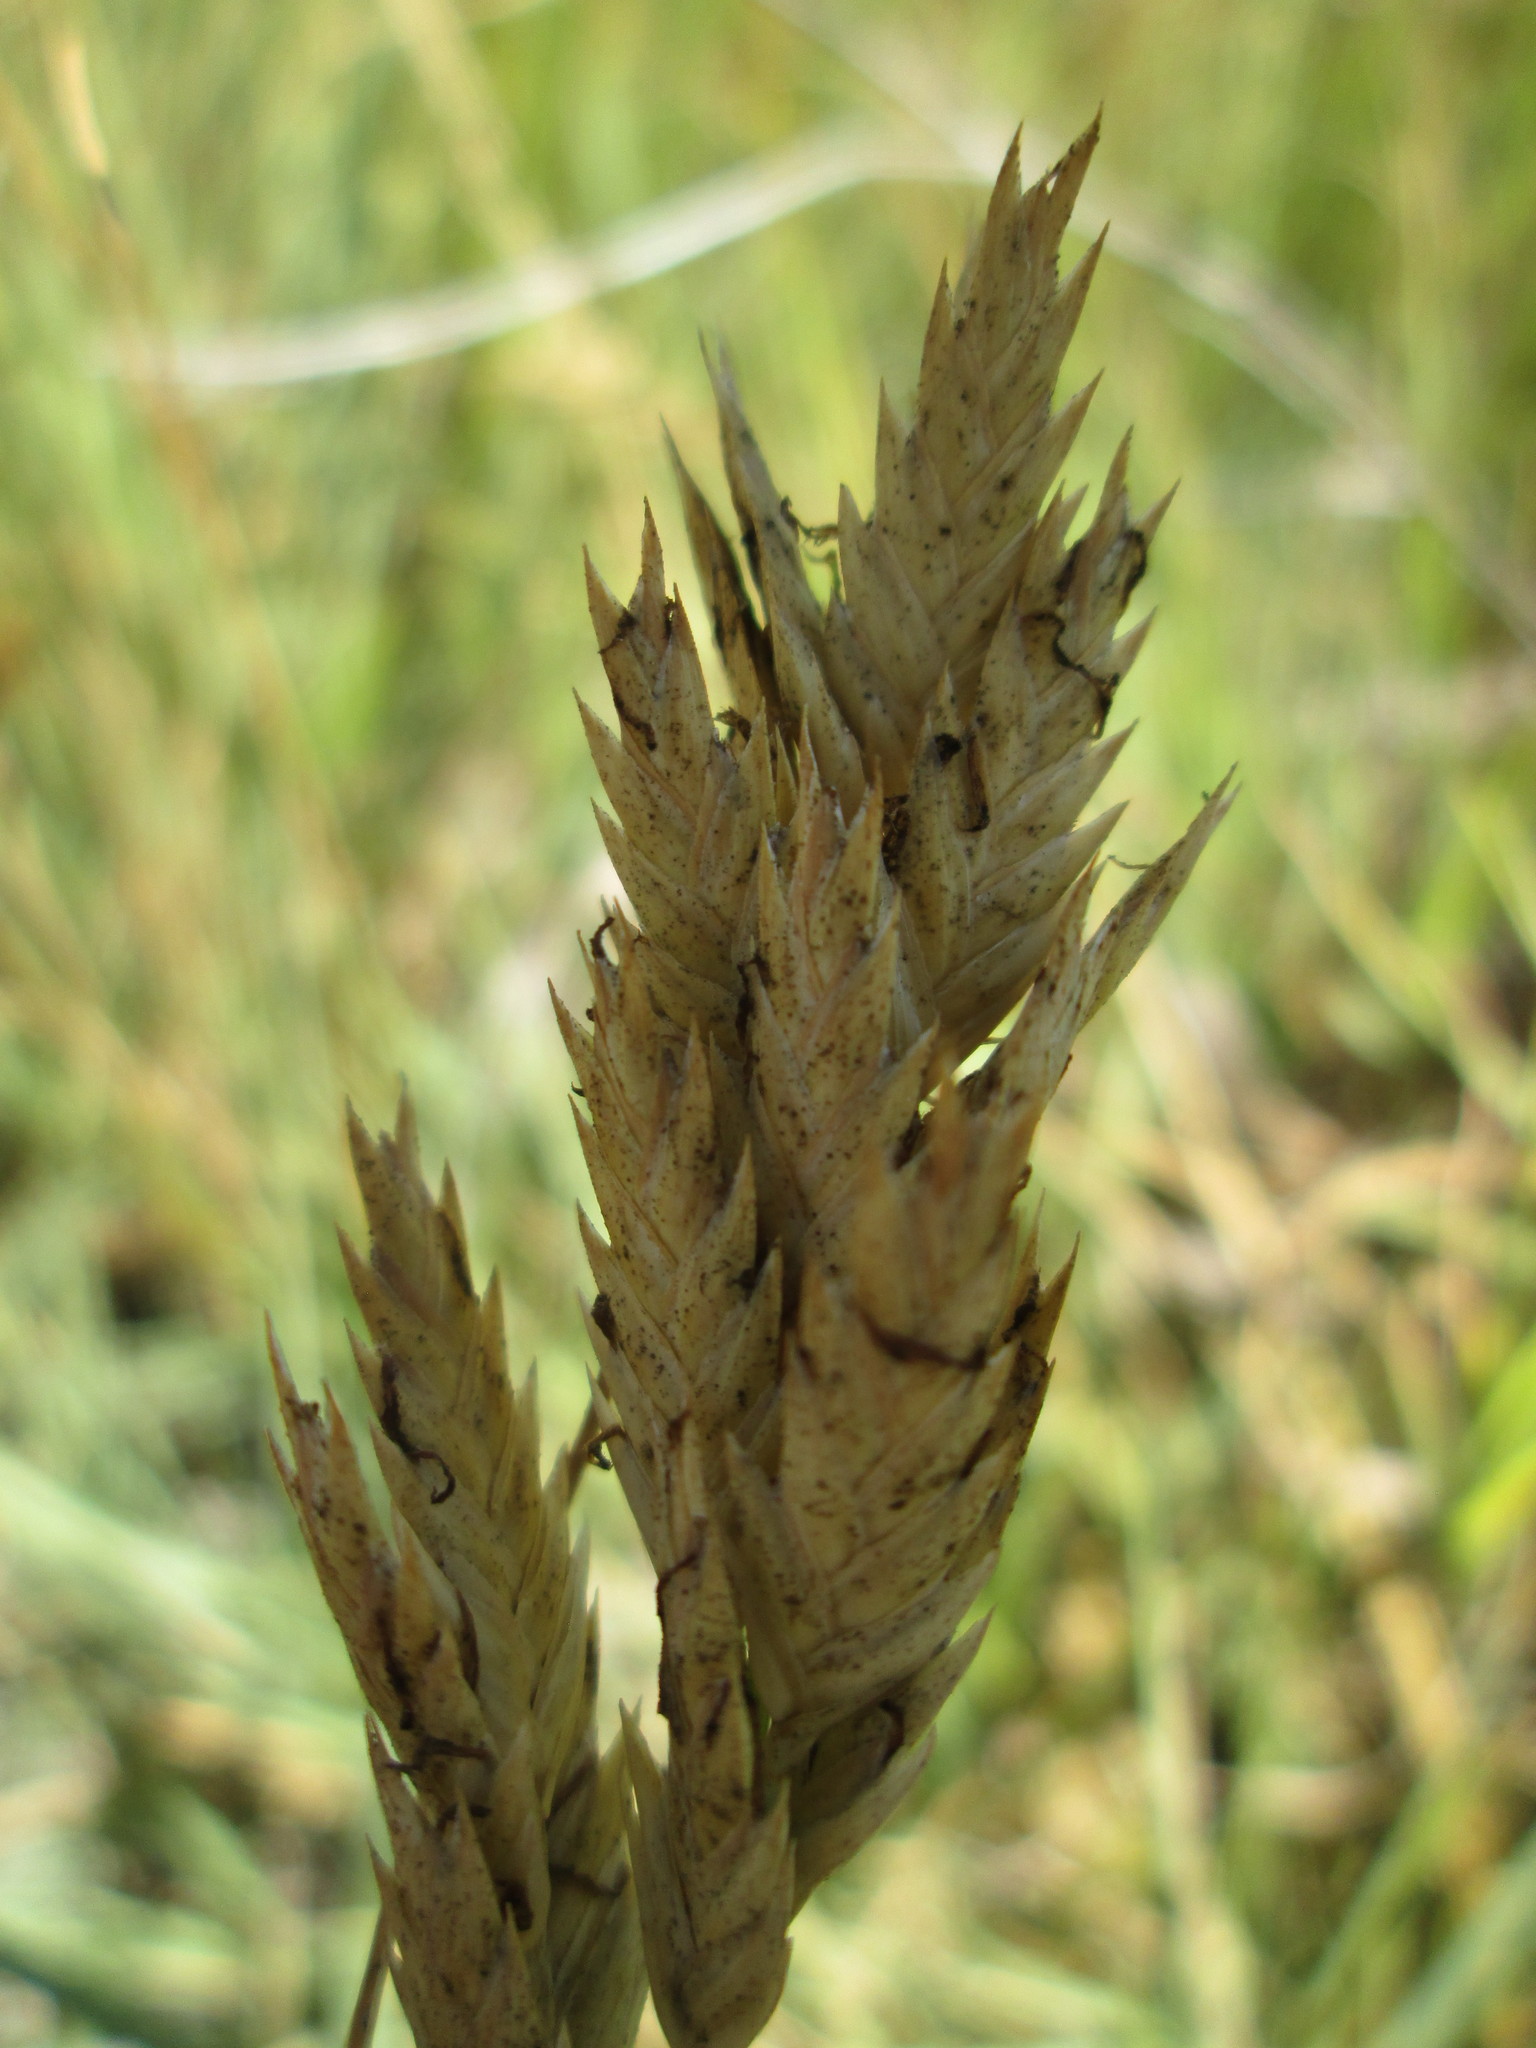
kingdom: Plantae
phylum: Tracheophyta
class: Liliopsida
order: Poales
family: Poaceae
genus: Distichlis
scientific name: Distichlis spicata
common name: Saltgrass
